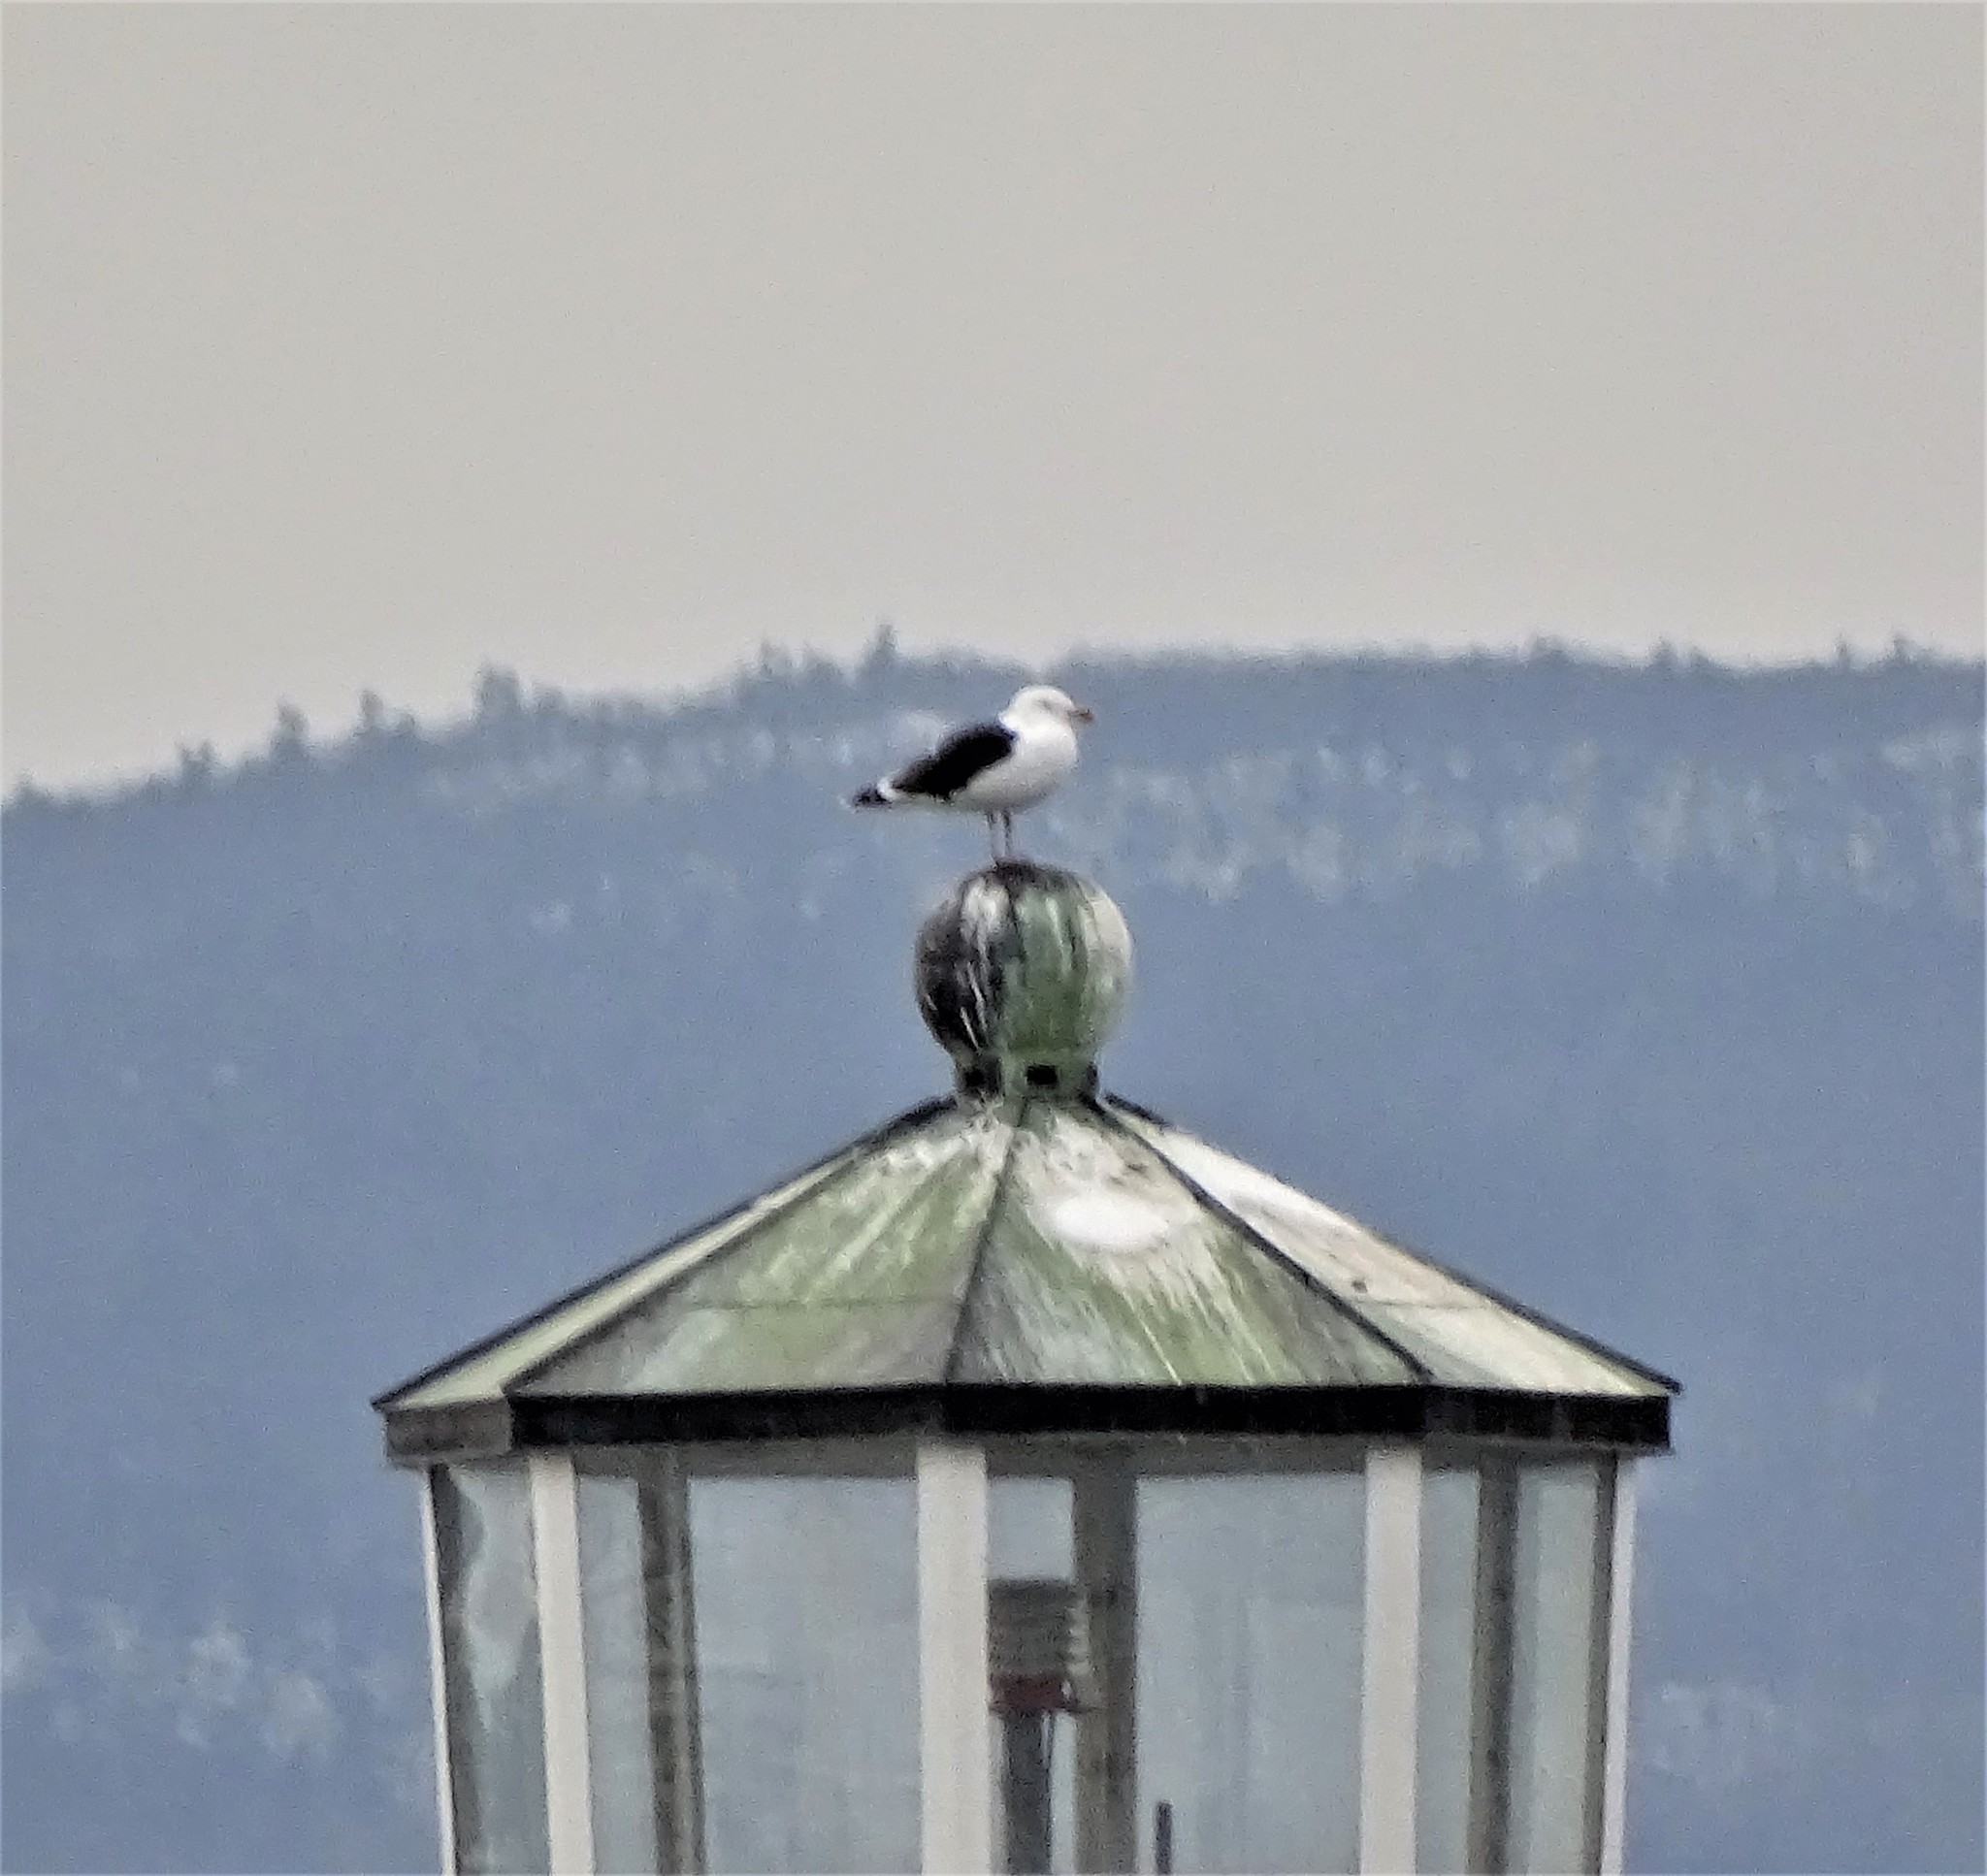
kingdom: Animalia
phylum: Chordata
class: Aves
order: Charadriiformes
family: Laridae
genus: Larus
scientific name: Larus marinus
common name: Great black-backed gull
